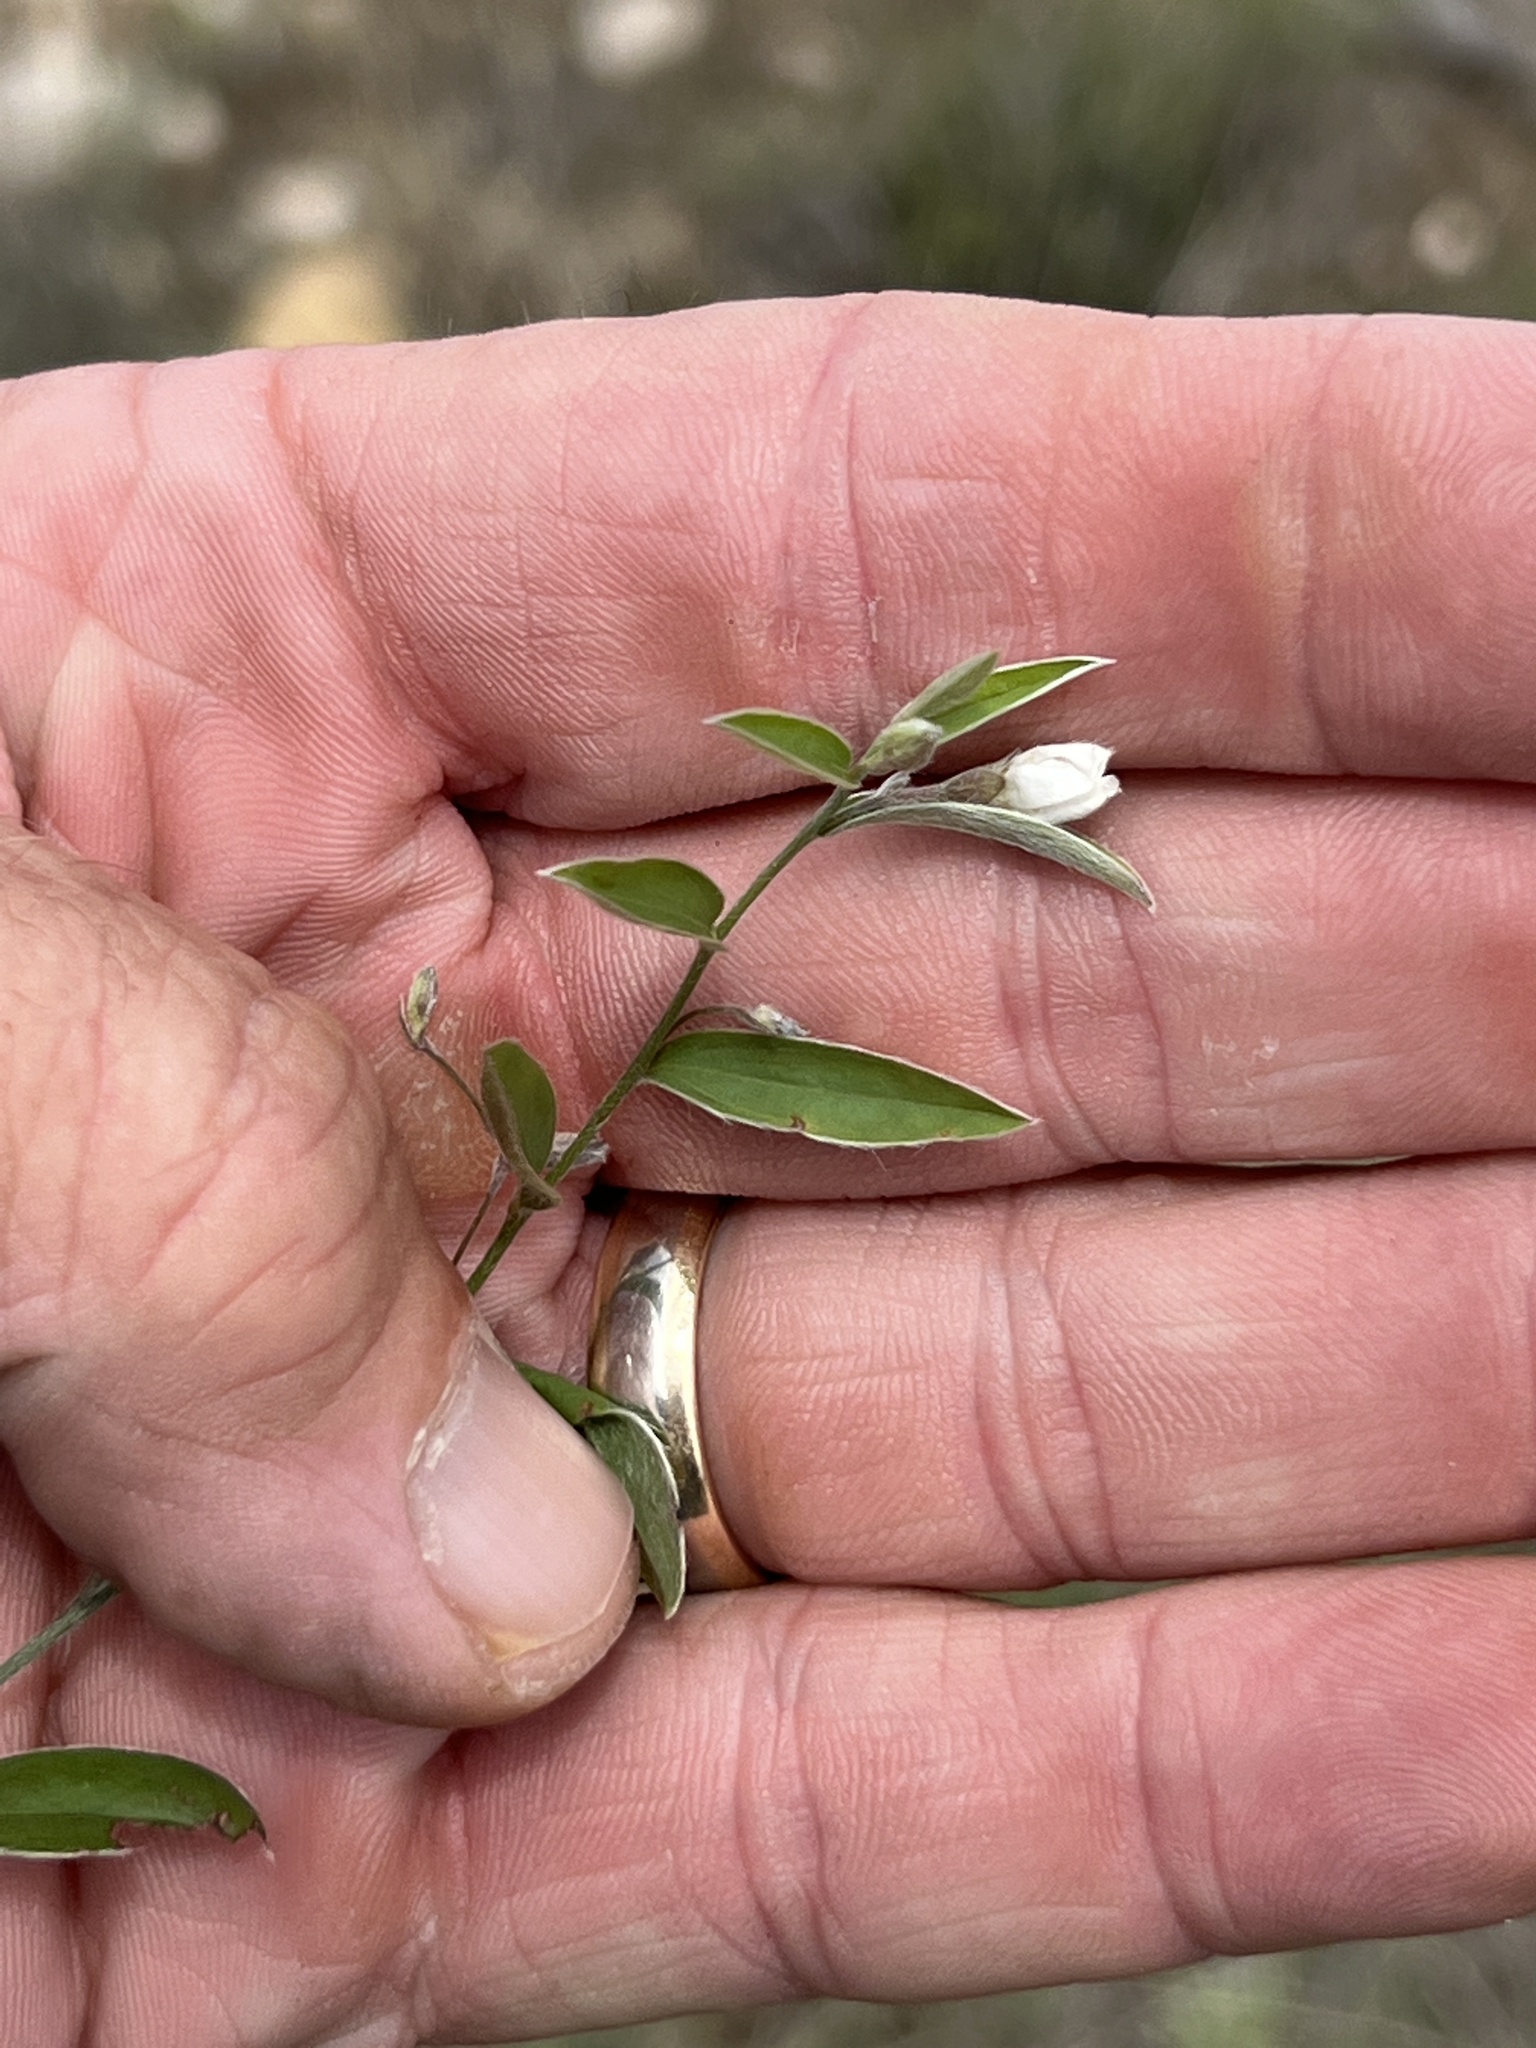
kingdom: Plantae
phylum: Tracheophyta
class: Magnoliopsida
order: Solanales
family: Convolvulaceae
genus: Evolvulus
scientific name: Evolvulus sericeus
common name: Blue dots
